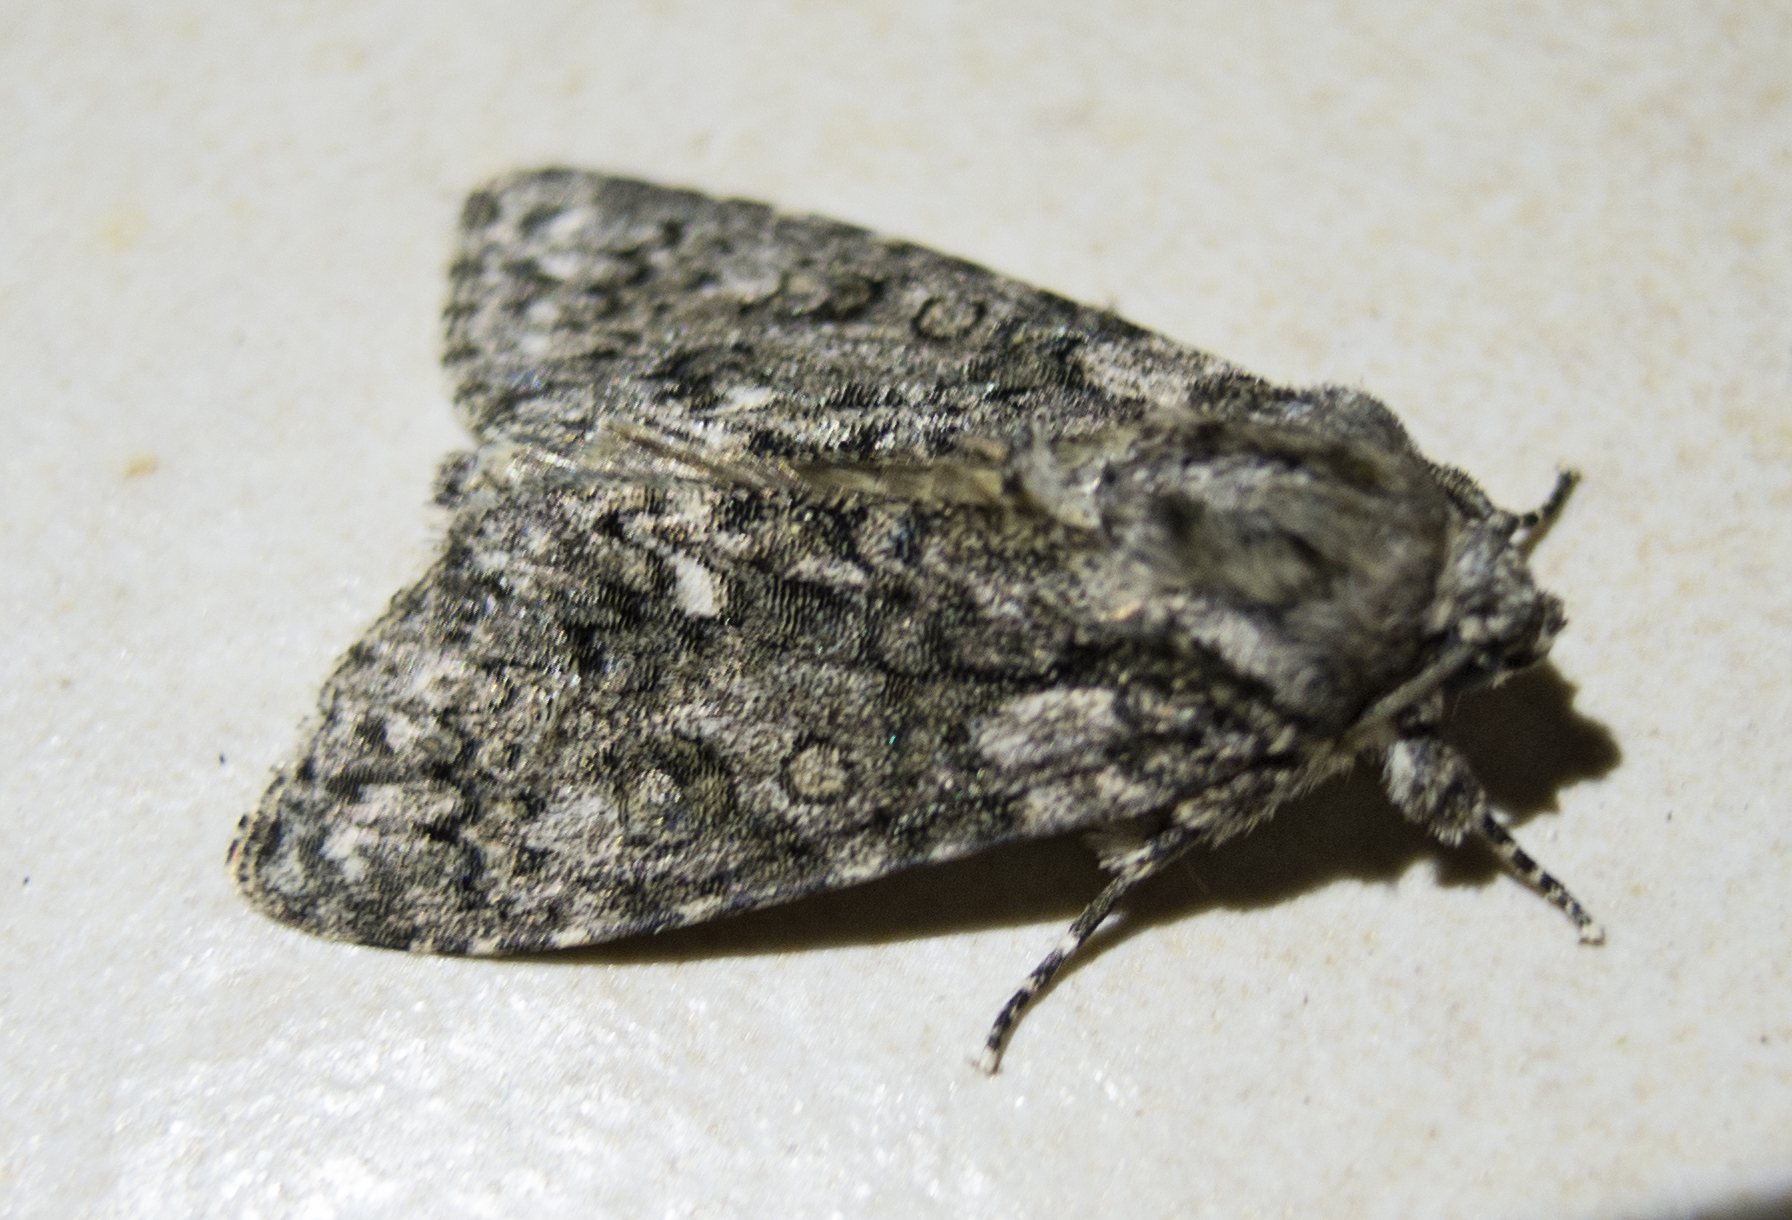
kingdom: Animalia
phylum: Arthropoda
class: Insecta
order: Lepidoptera
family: Noctuidae
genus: Acronicta
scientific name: Acronicta rumicis
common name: Knot grass
